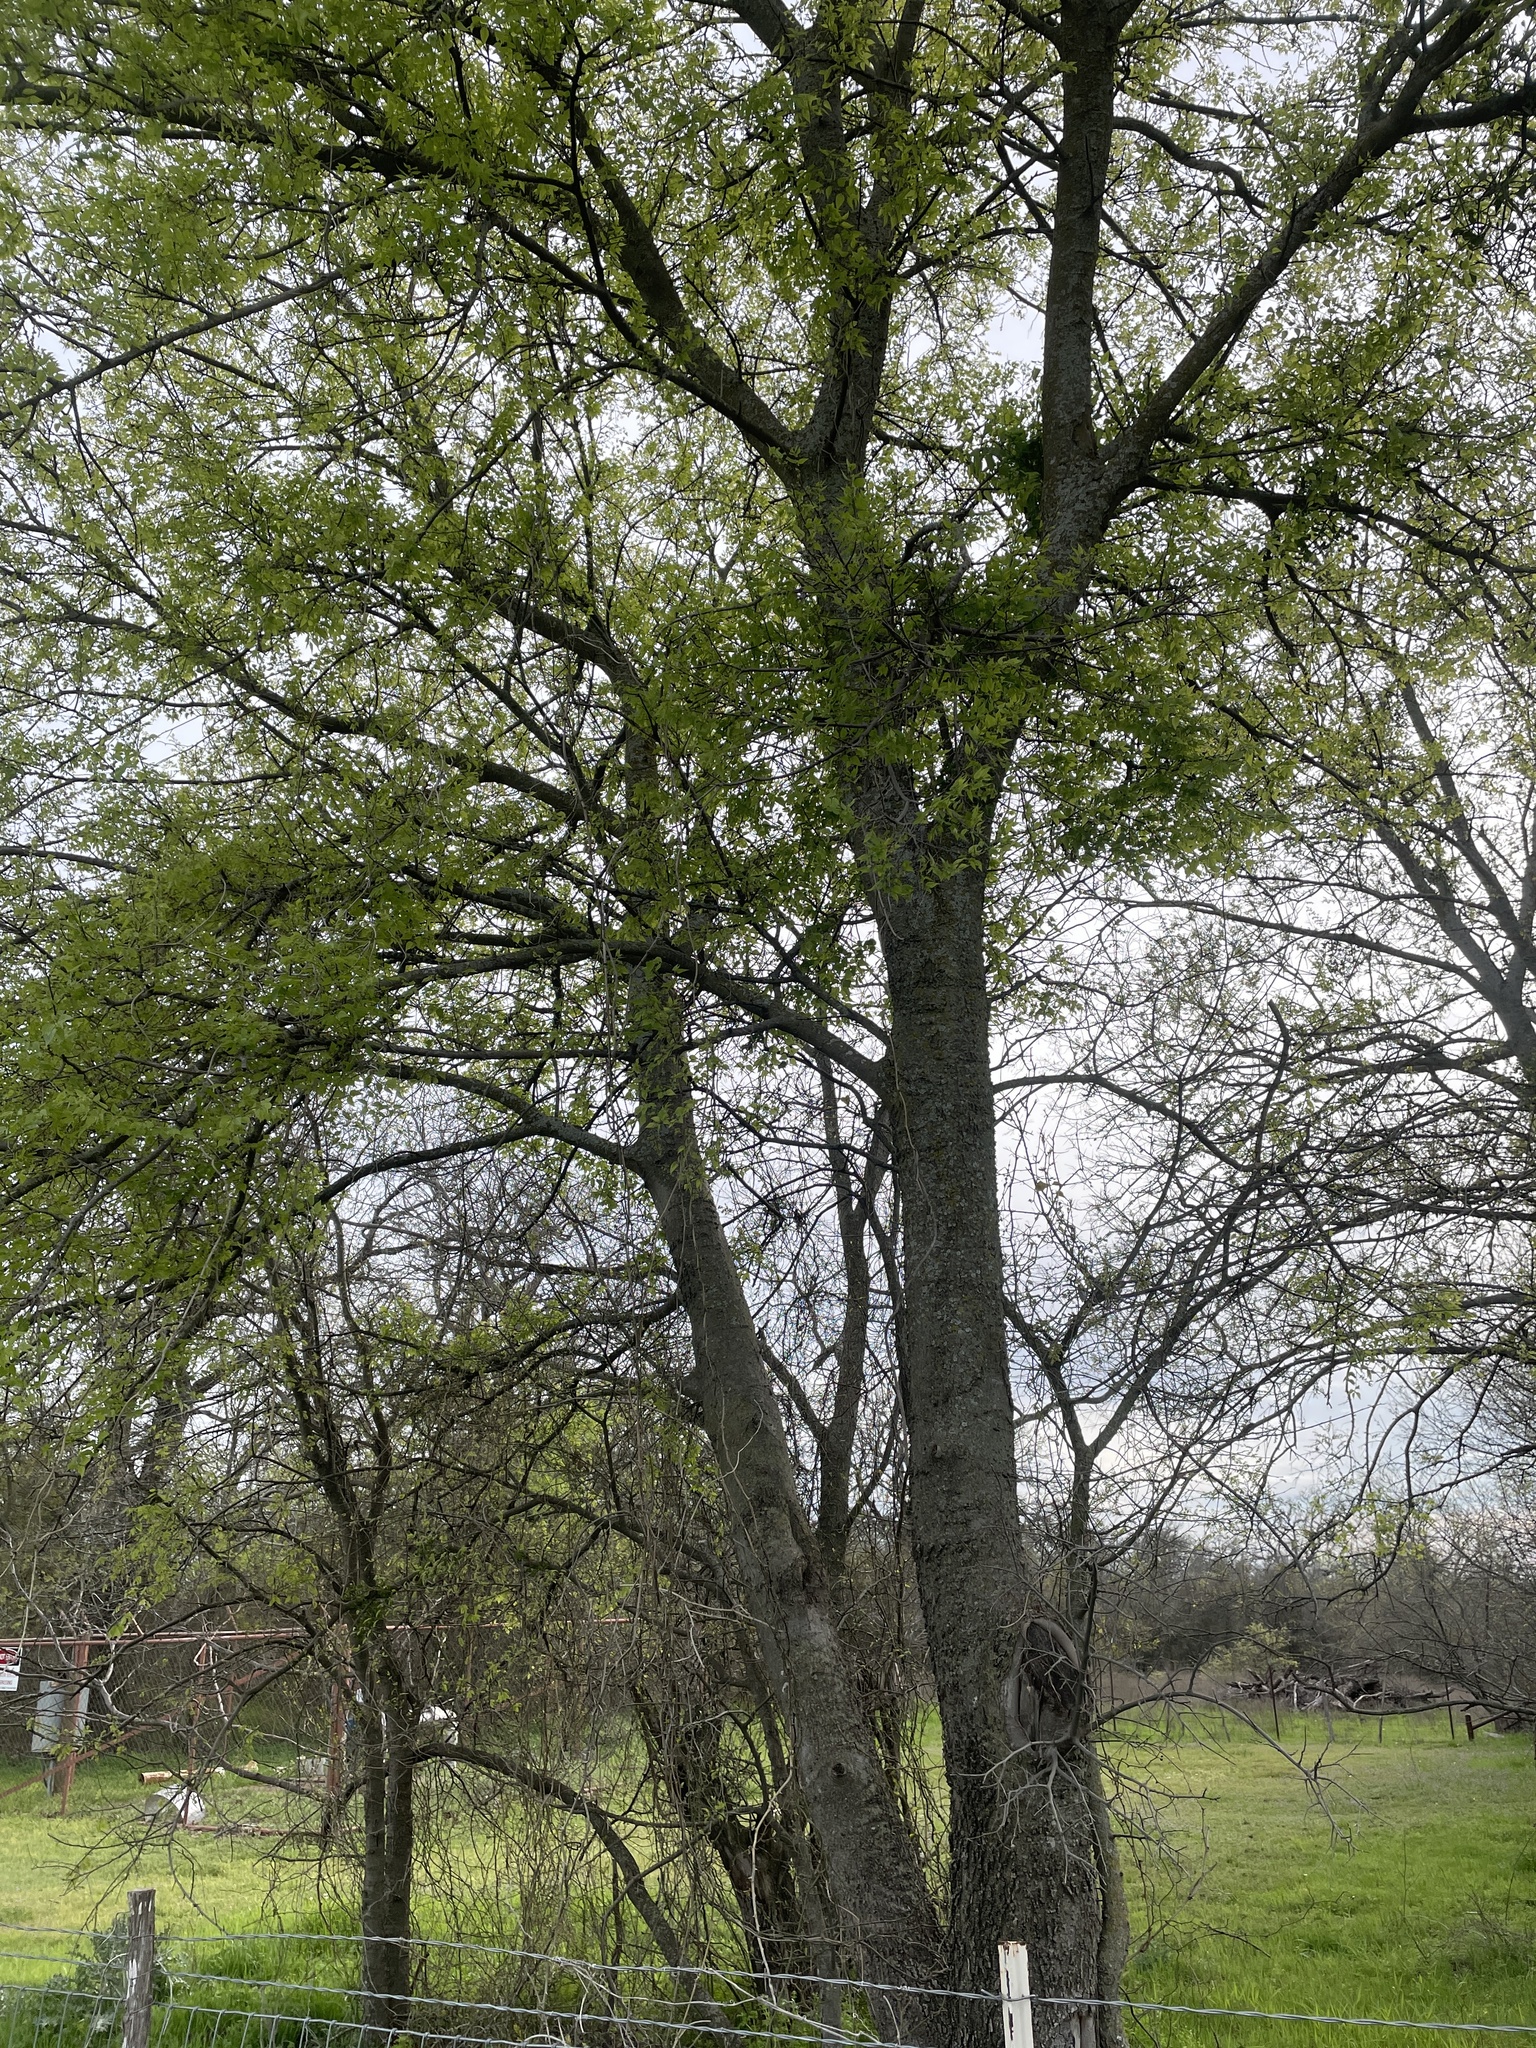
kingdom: Plantae
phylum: Tracheophyta
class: Magnoliopsida
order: Rosales
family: Cannabaceae
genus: Celtis
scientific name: Celtis laevigata
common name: Sugarberry
